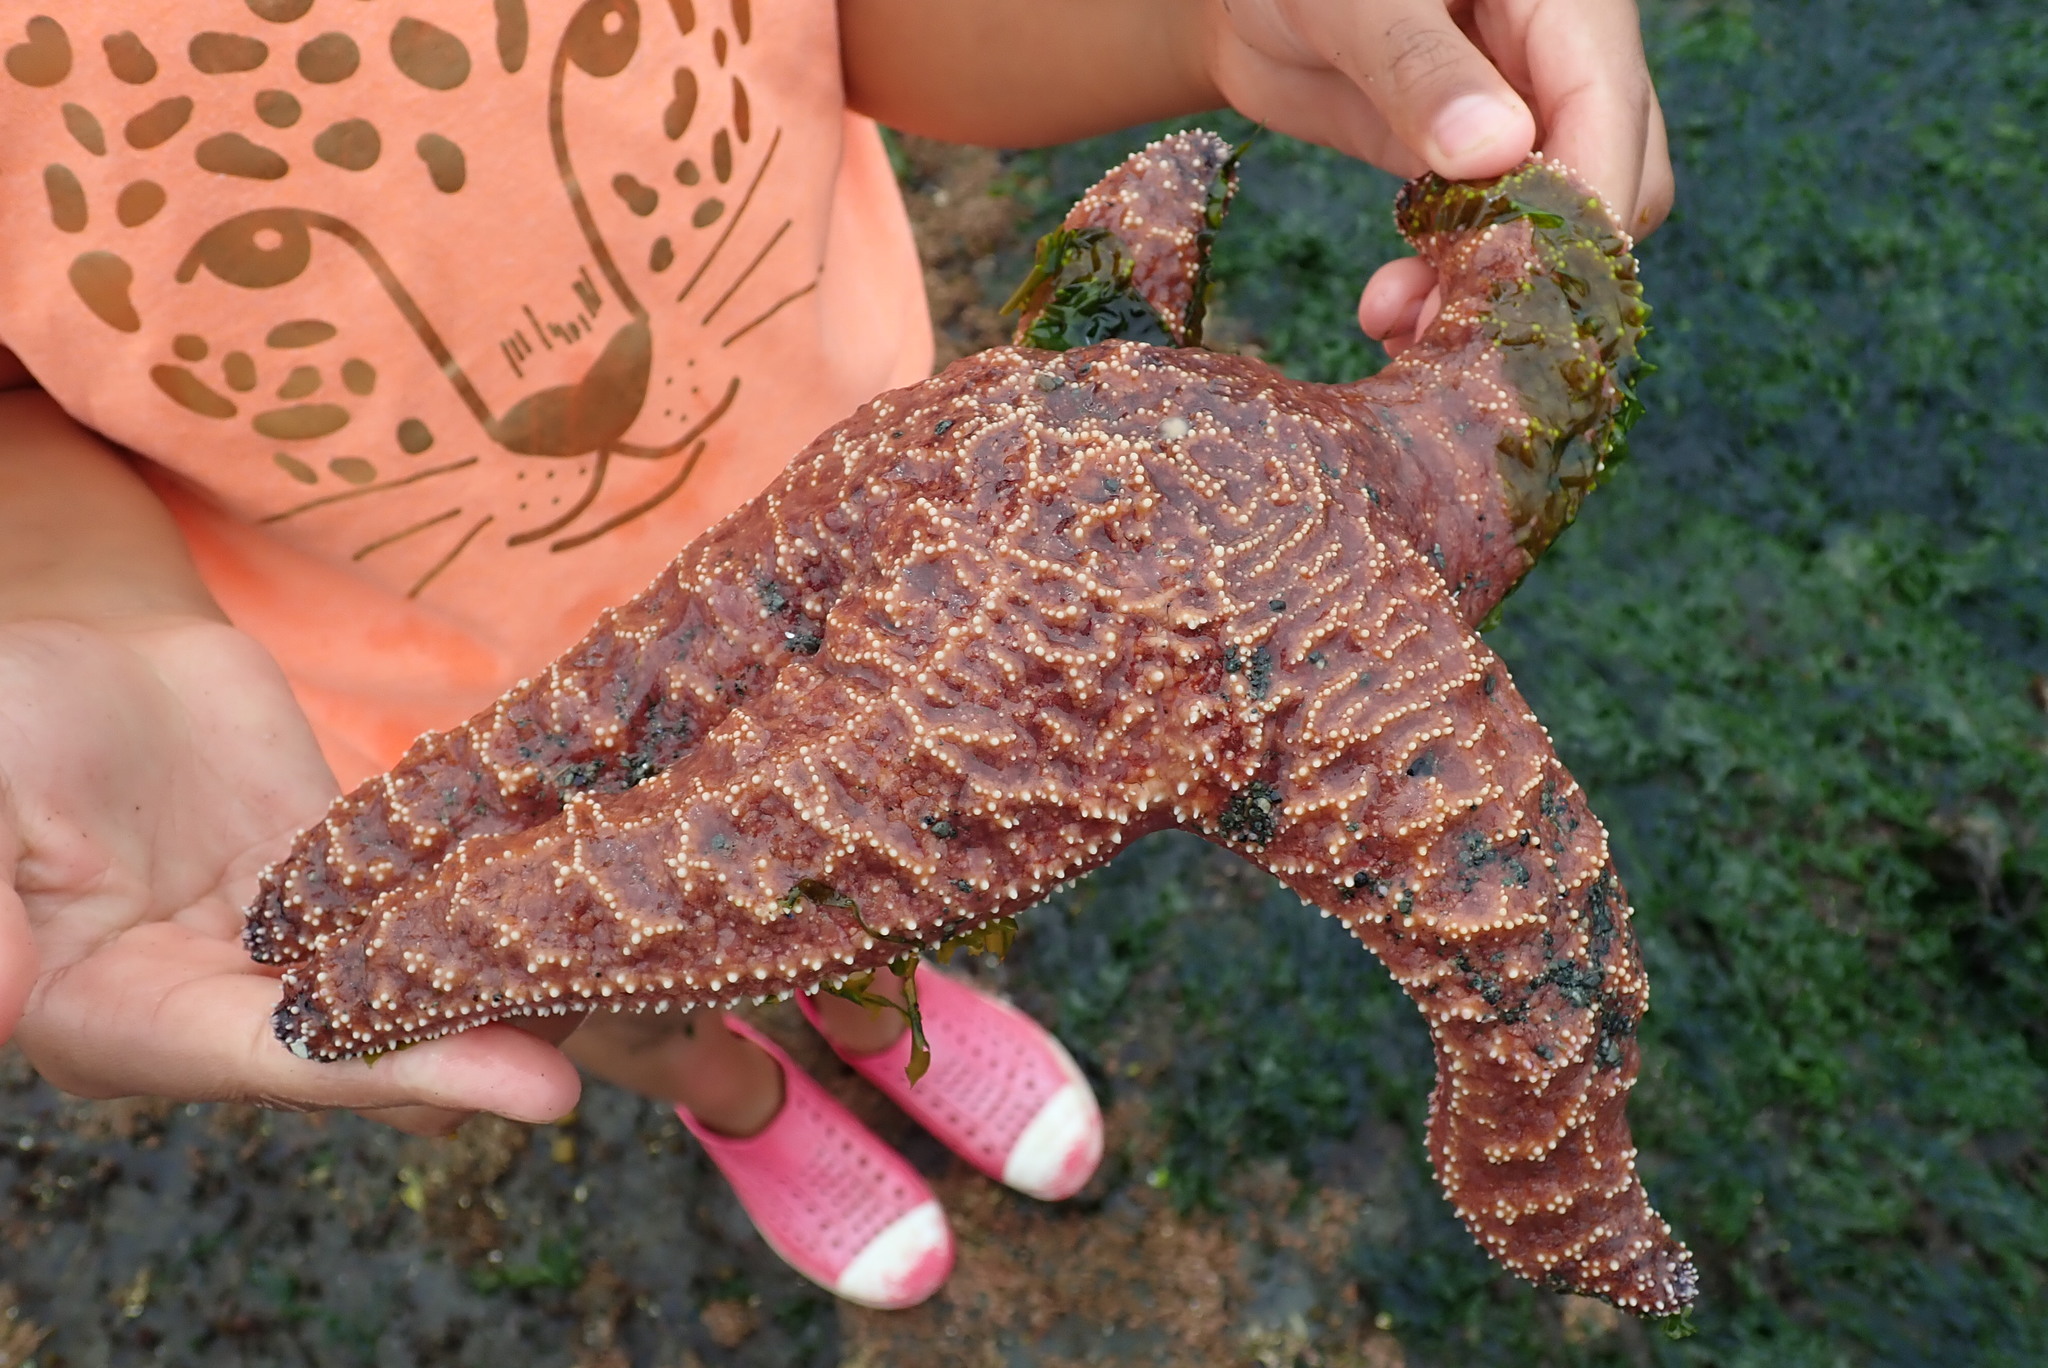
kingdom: Animalia
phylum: Echinodermata
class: Asteroidea
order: Forcipulatida
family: Asteriidae
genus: Pisaster
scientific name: Pisaster ochraceus
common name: Ochre stars
